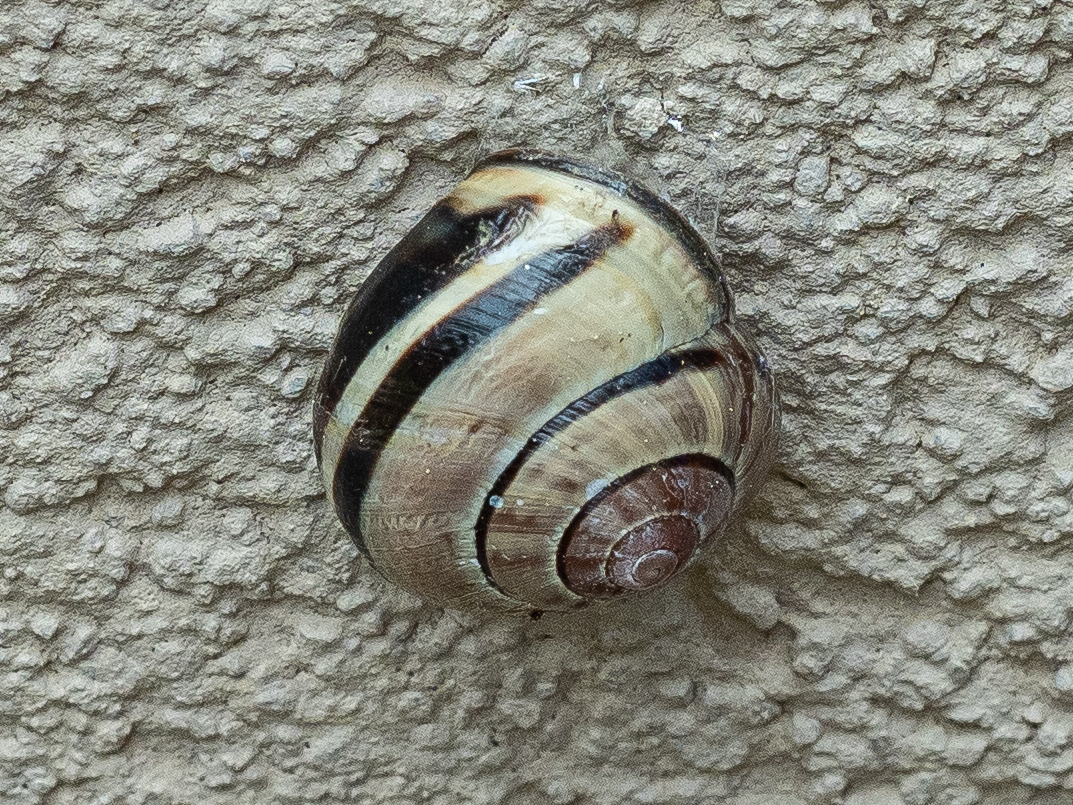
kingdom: Animalia
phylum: Mollusca
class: Gastropoda
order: Stylommatophora
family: Helicidae
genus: Cepaea
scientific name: Cepaea nemoralis
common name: Grovesnail
